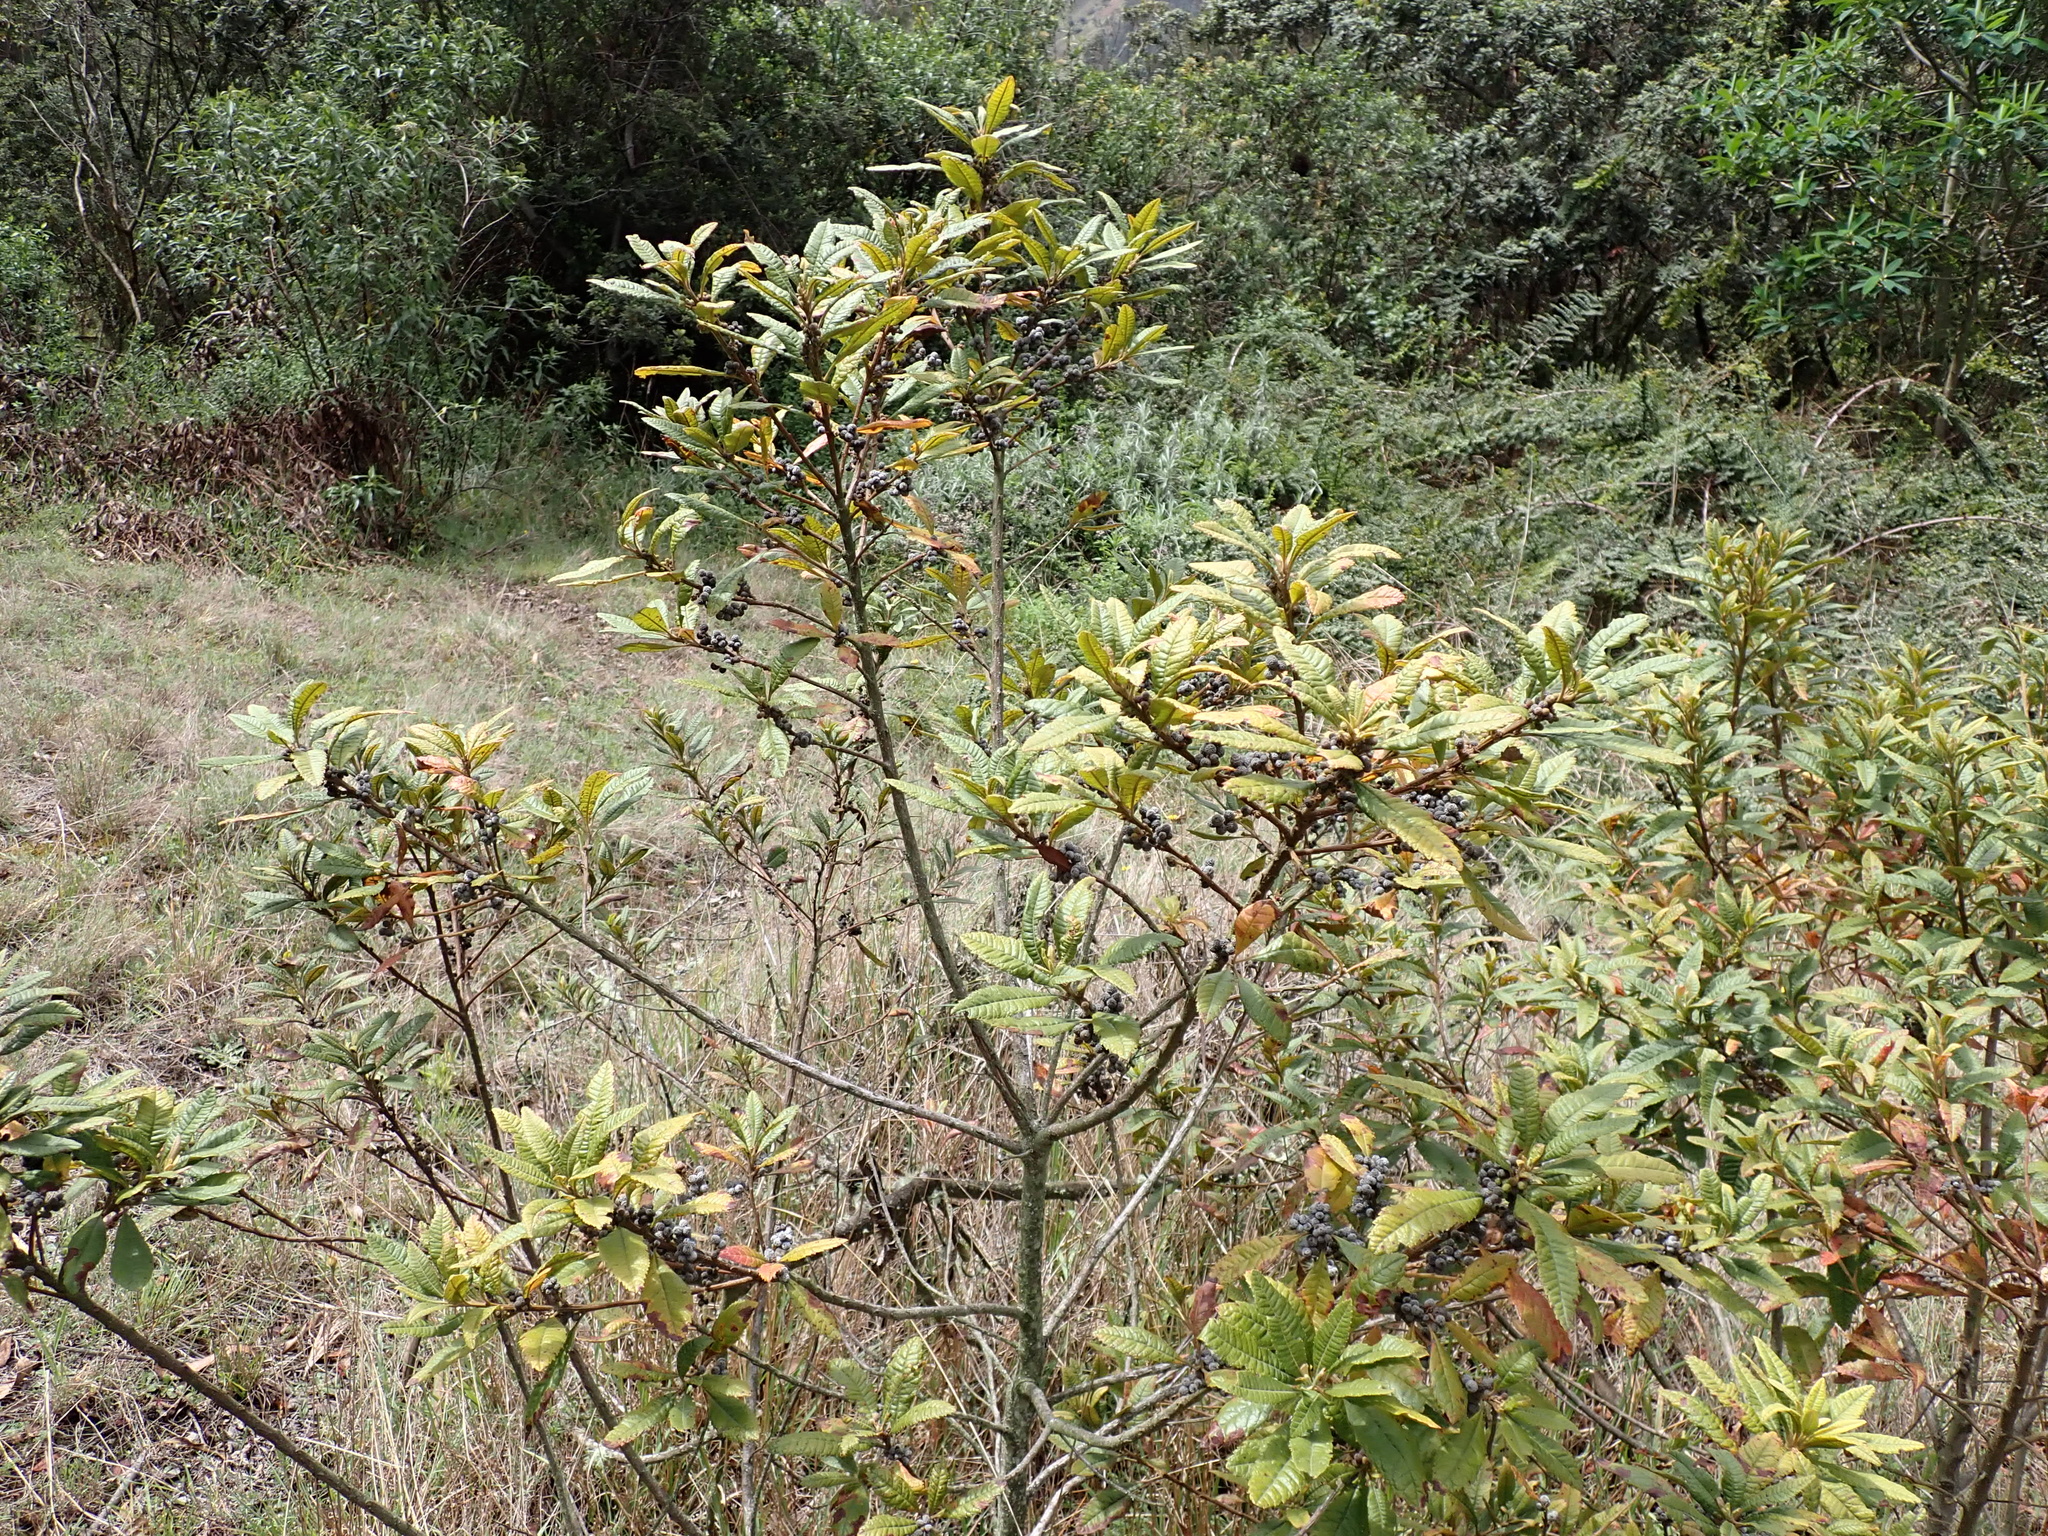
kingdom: Plantae
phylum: Tracheophyta
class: Magnoliopsida
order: Fagales
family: Myricaceae
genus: Morella
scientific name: Morella pubescens
